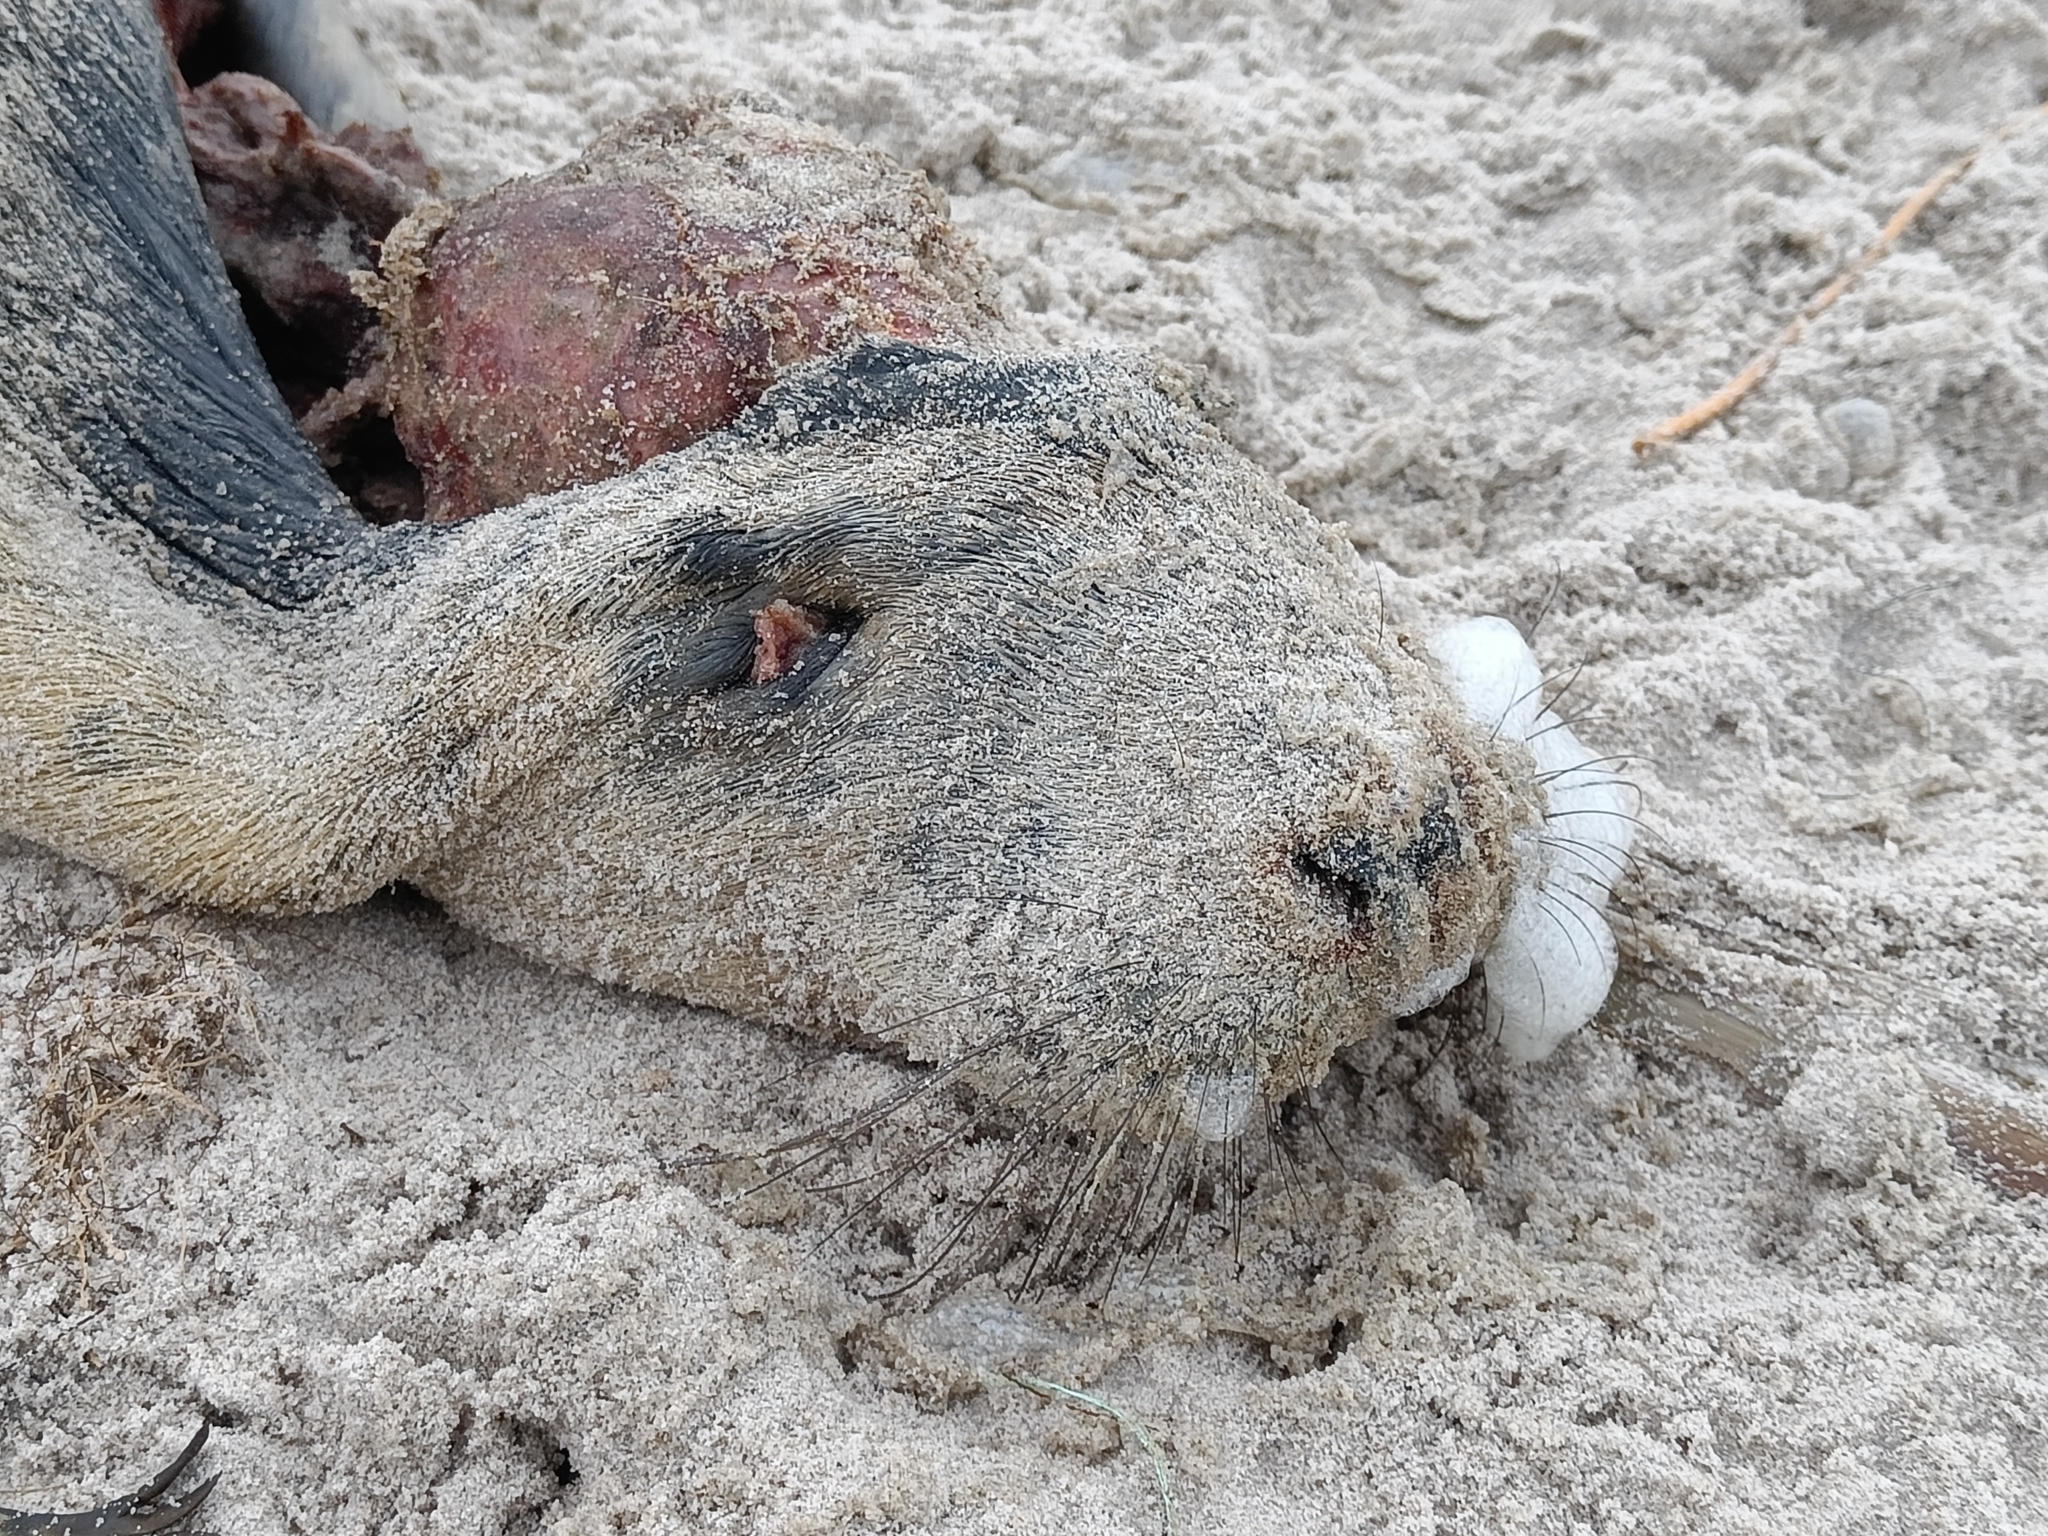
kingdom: Animalia
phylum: Chordata
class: Mammalia
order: Carnivora
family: Phocidae
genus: Halichoerus
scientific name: Halichoerus grypus
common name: Grey seal
